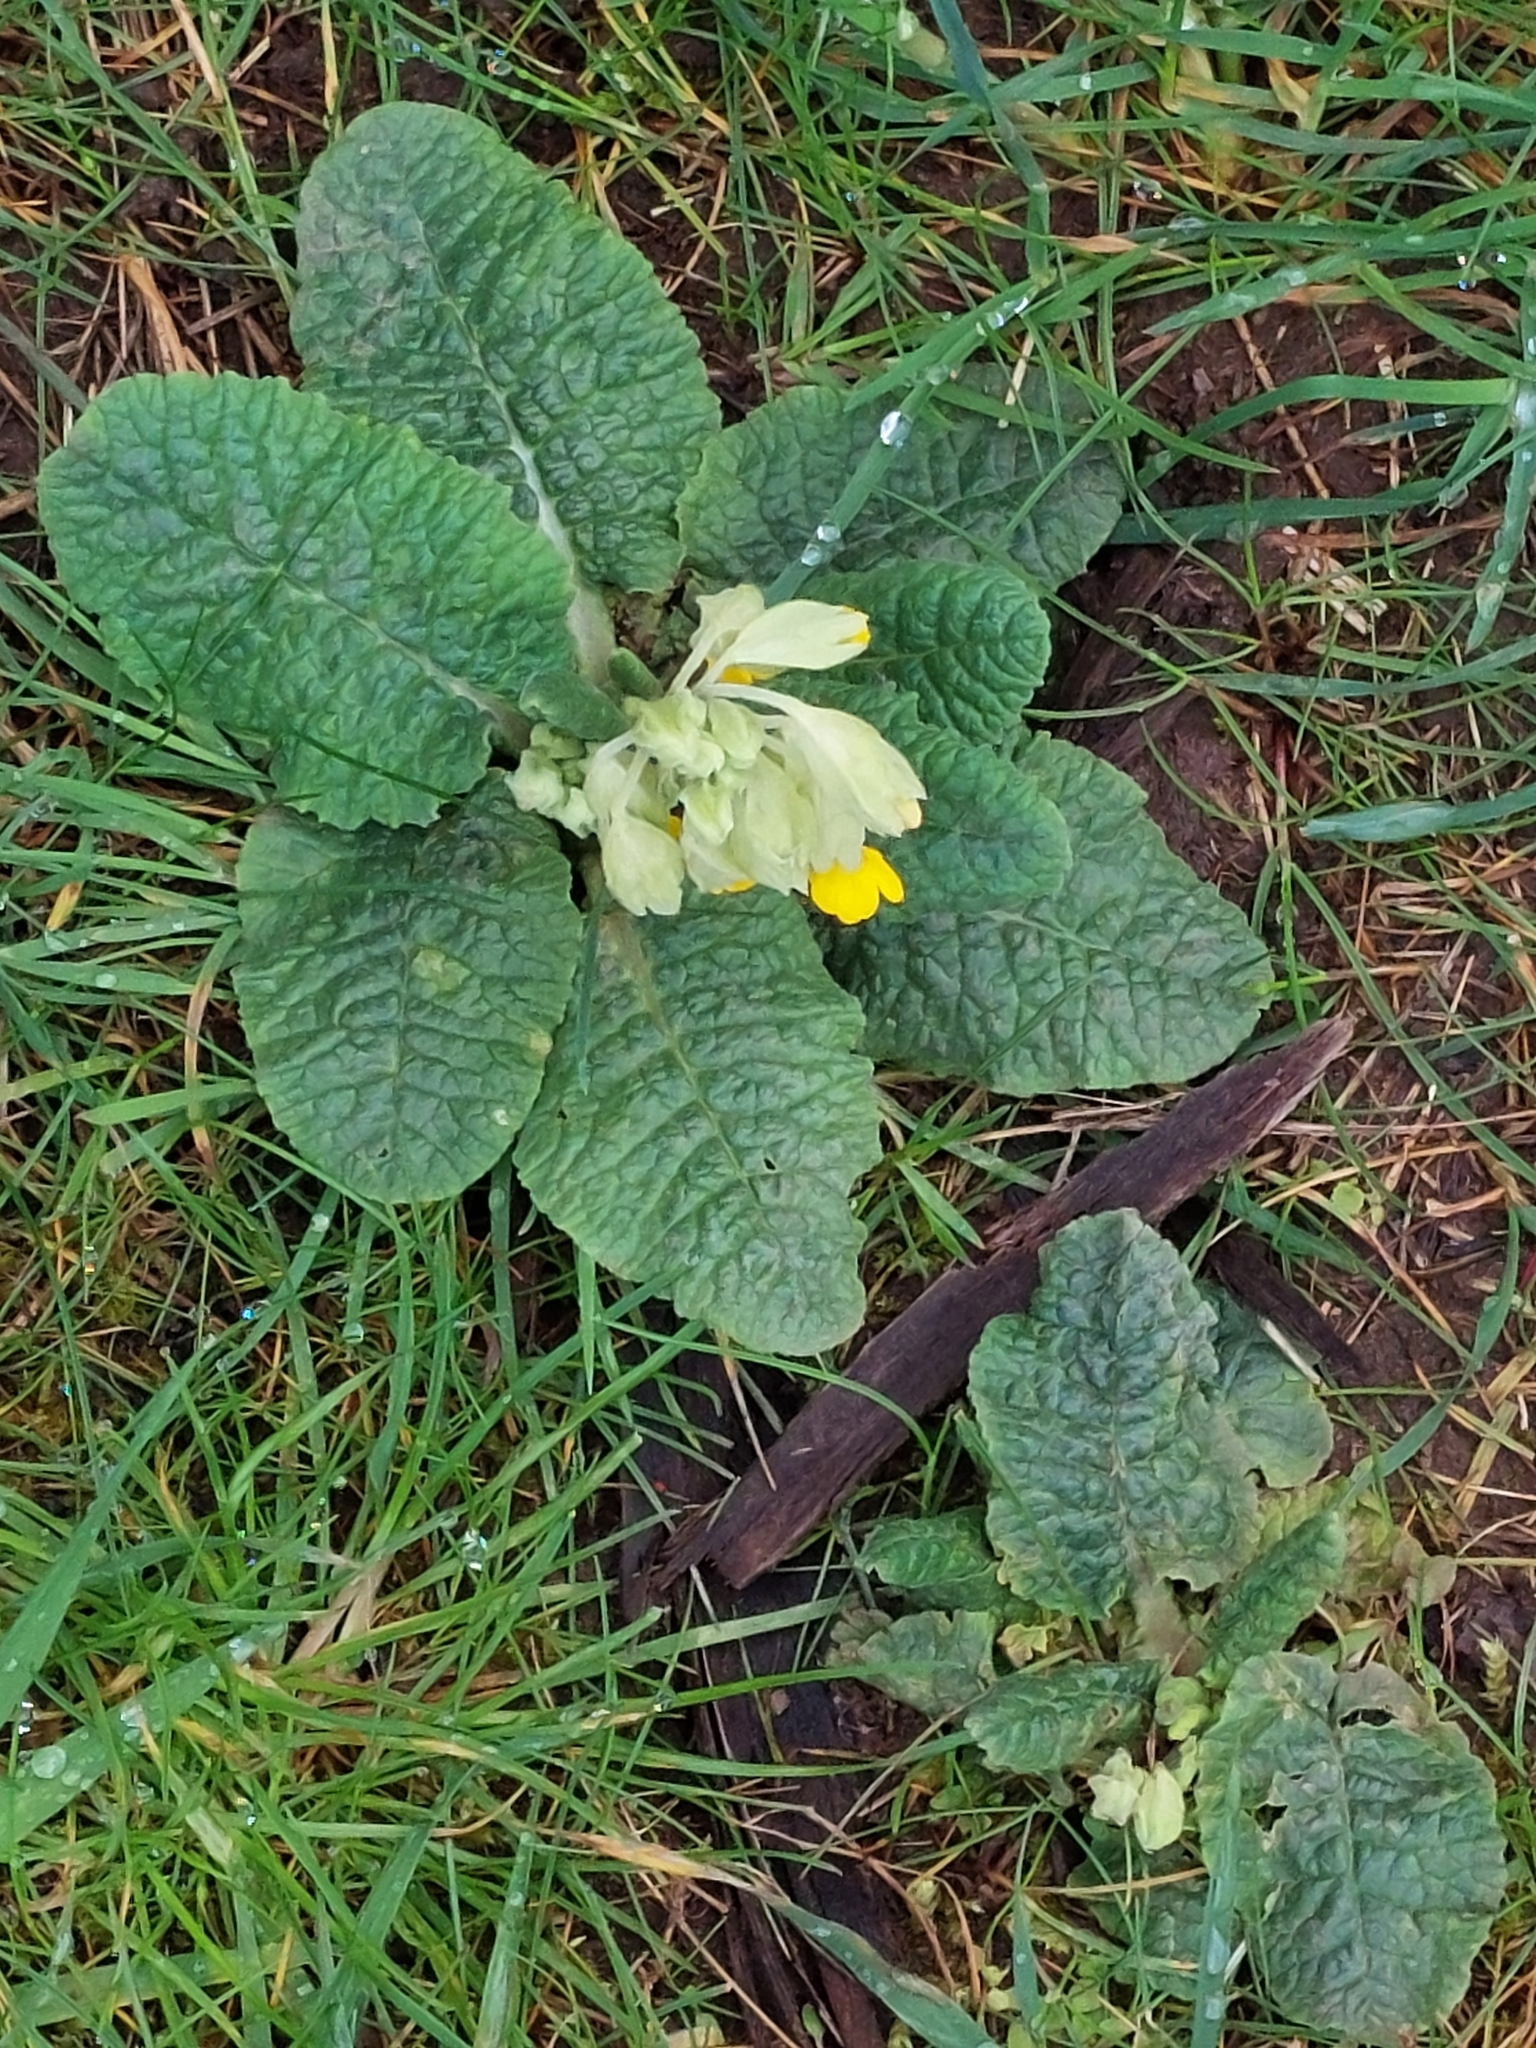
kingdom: Plantae
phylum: Tracheophyta
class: Magnoliopsida
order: Ericales
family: Primulaceae
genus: Primula
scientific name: Primula veris
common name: Cowslip
